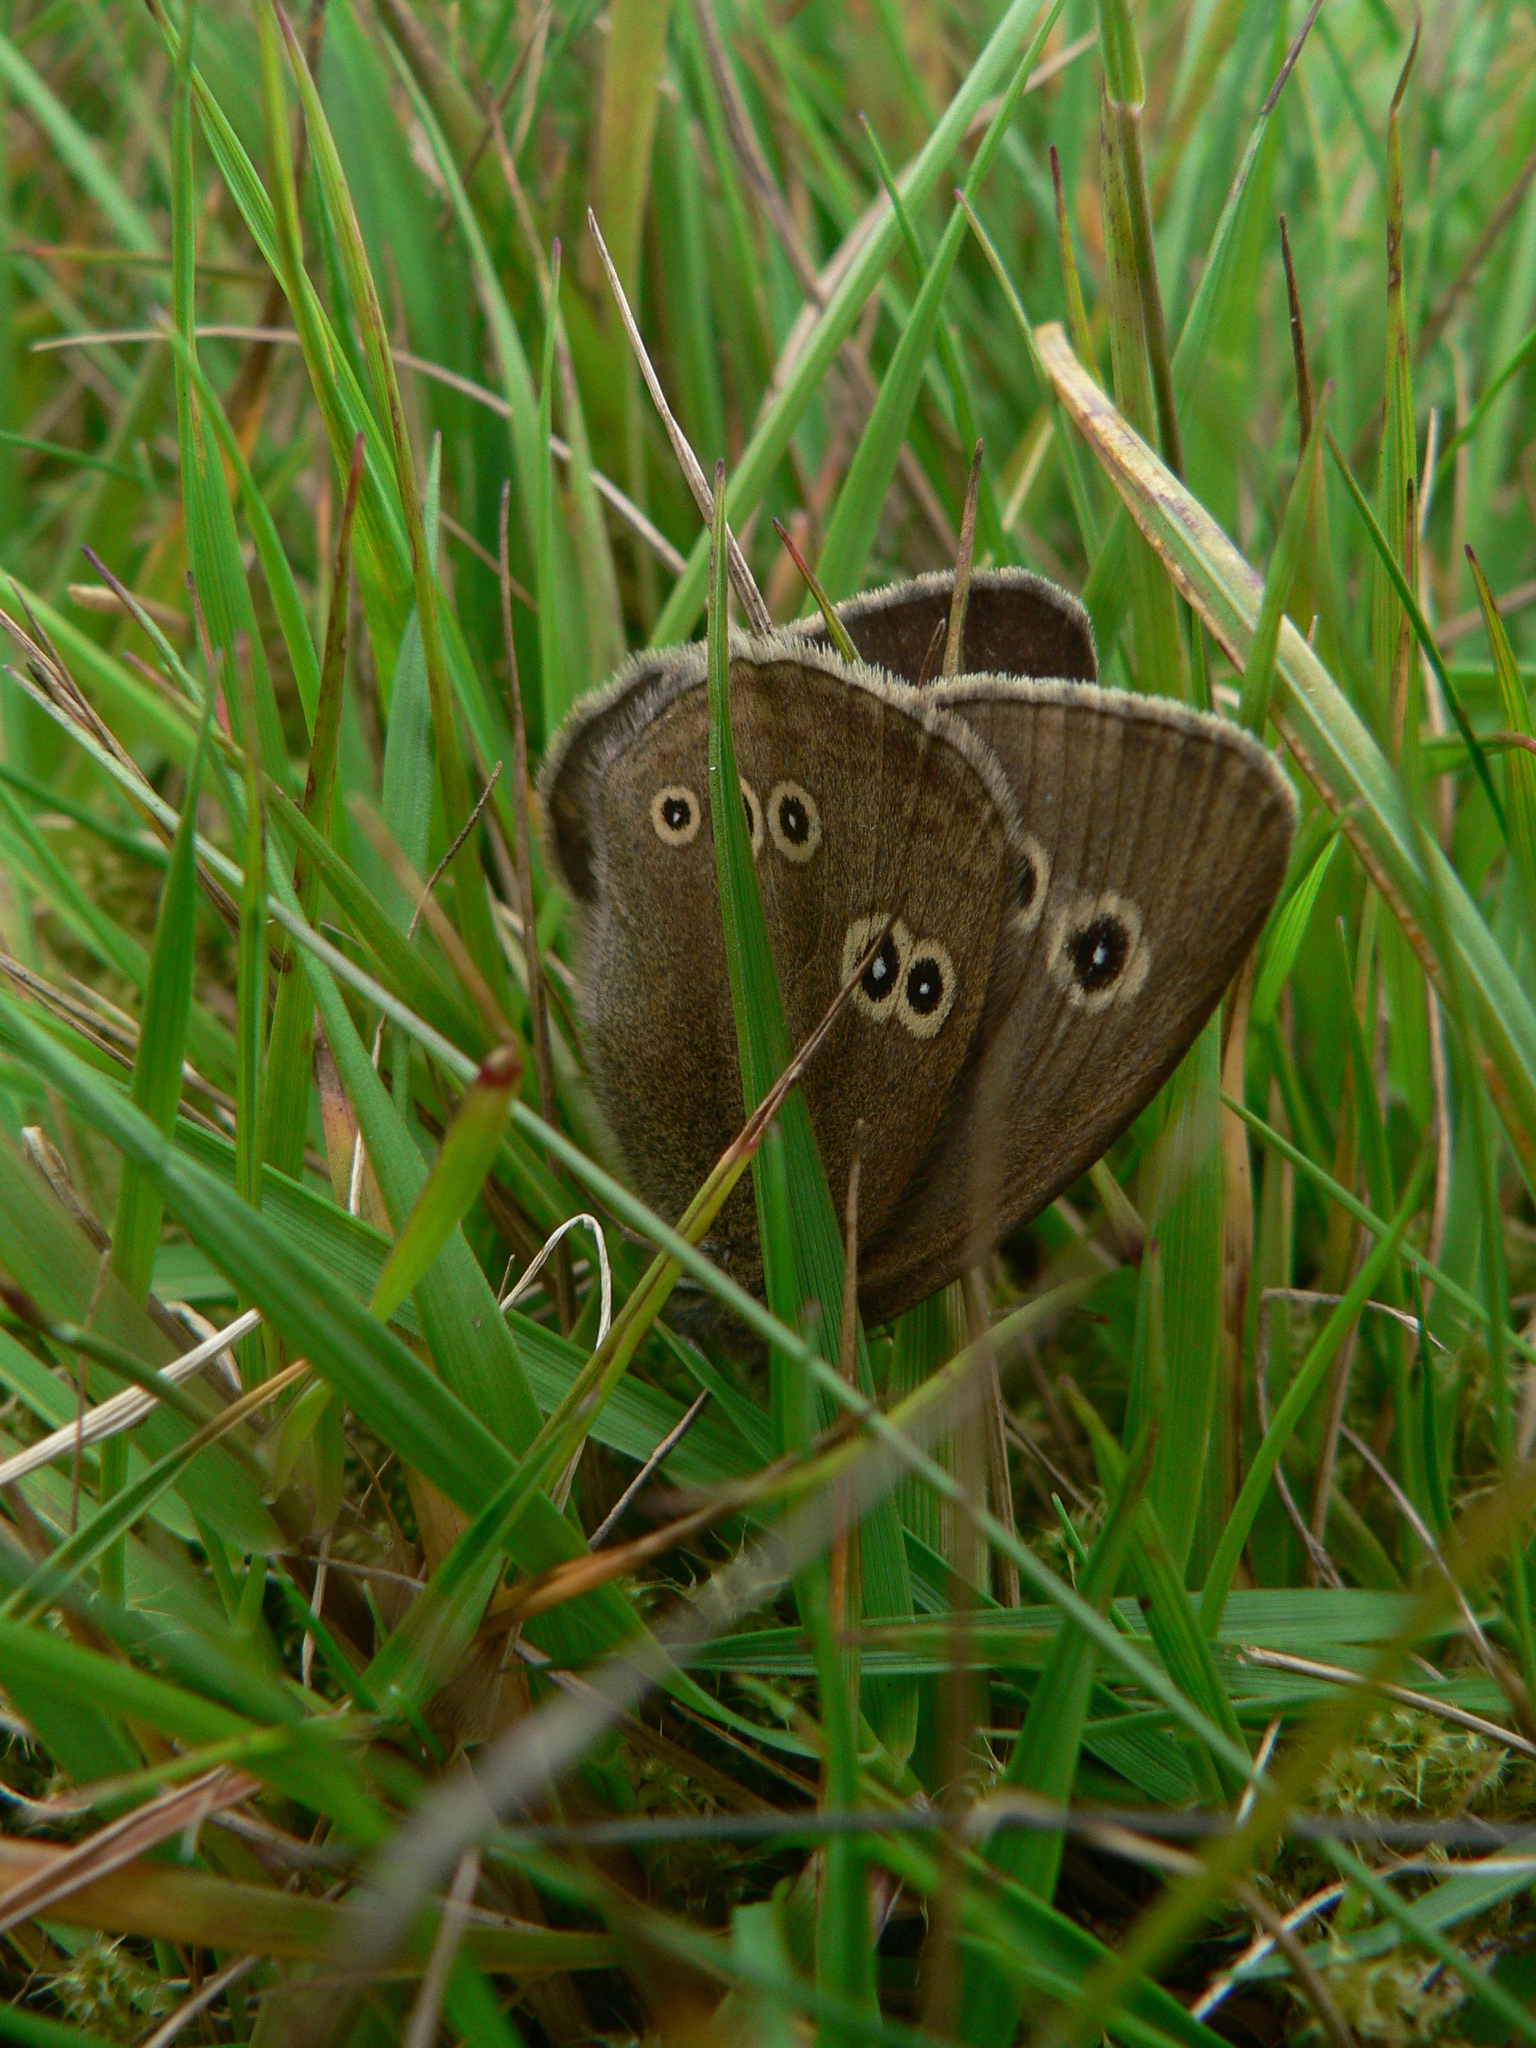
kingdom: Animalia
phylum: Arthropoda
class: Insecta
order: Lepidoptera
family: Nymphalidae
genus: Aphantopus
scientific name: Aphantopus hyperantus
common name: Ringlet
